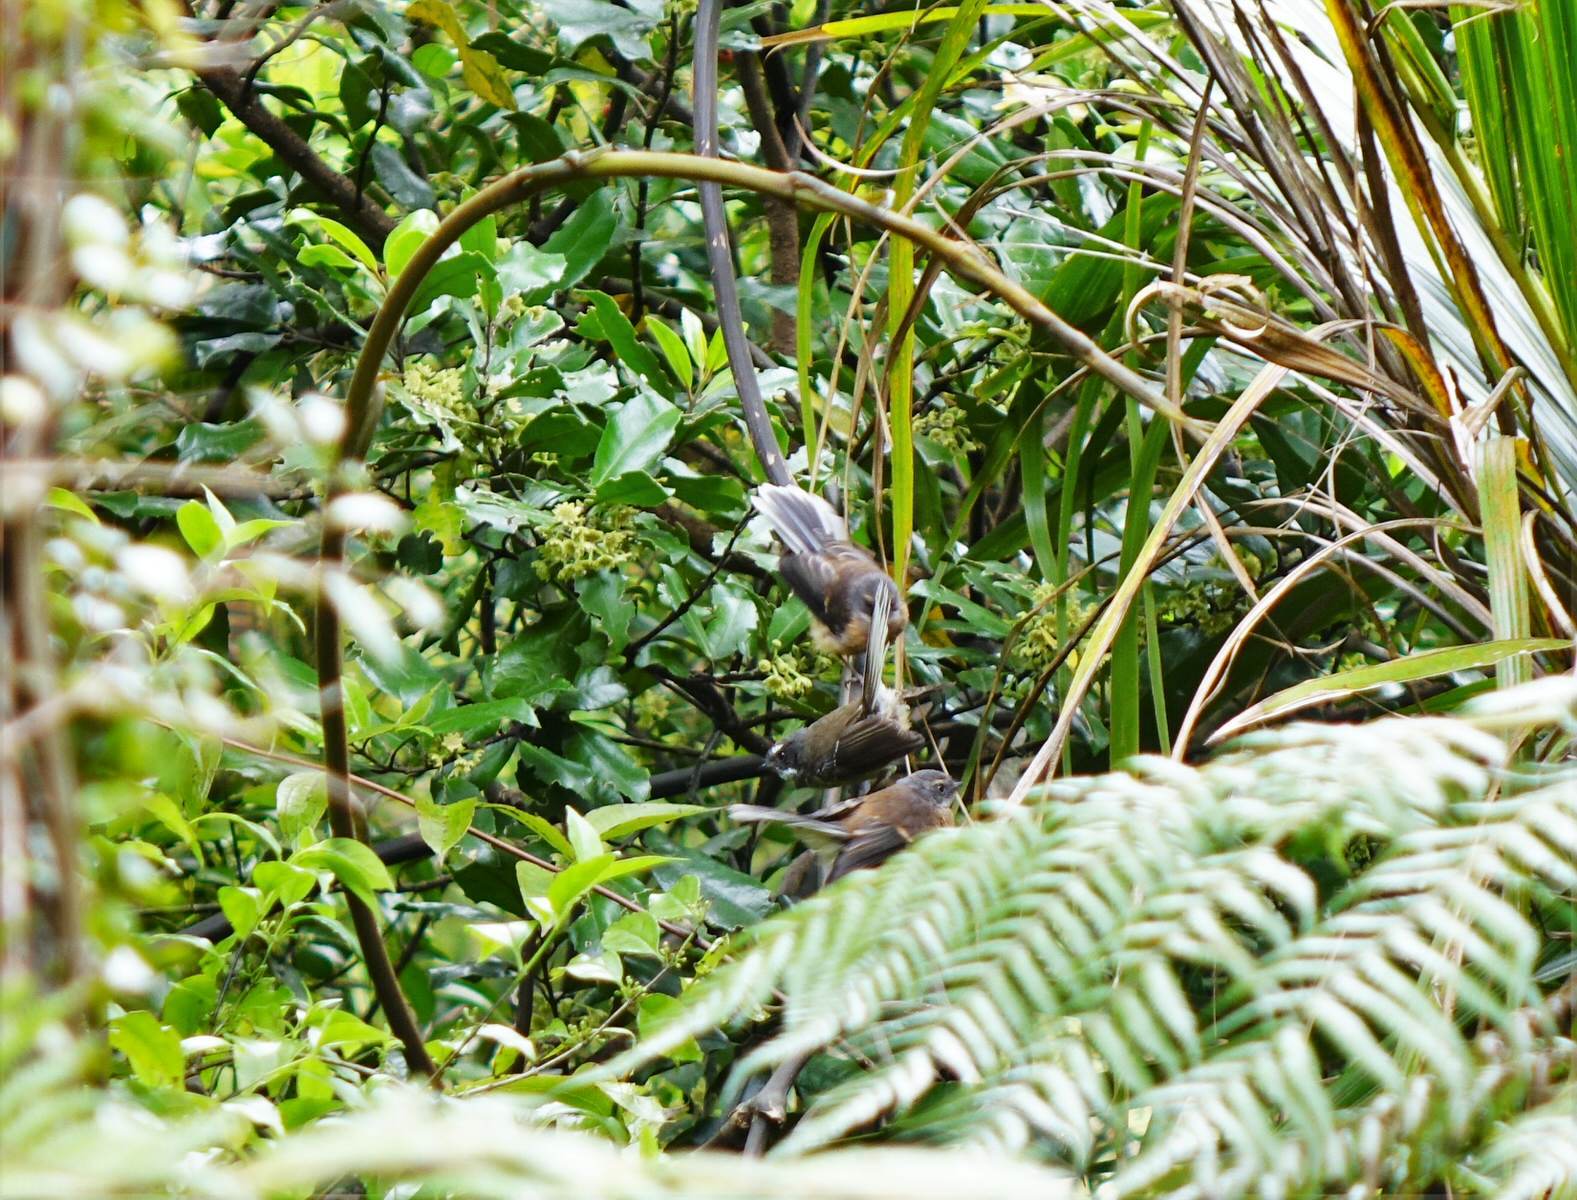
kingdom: Animalia
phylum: Chordata
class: Aves
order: Passeriformes
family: Rhipiduridae
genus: Rhipidura
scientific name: Rhipidura fuliginosa
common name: New zealand fantail
